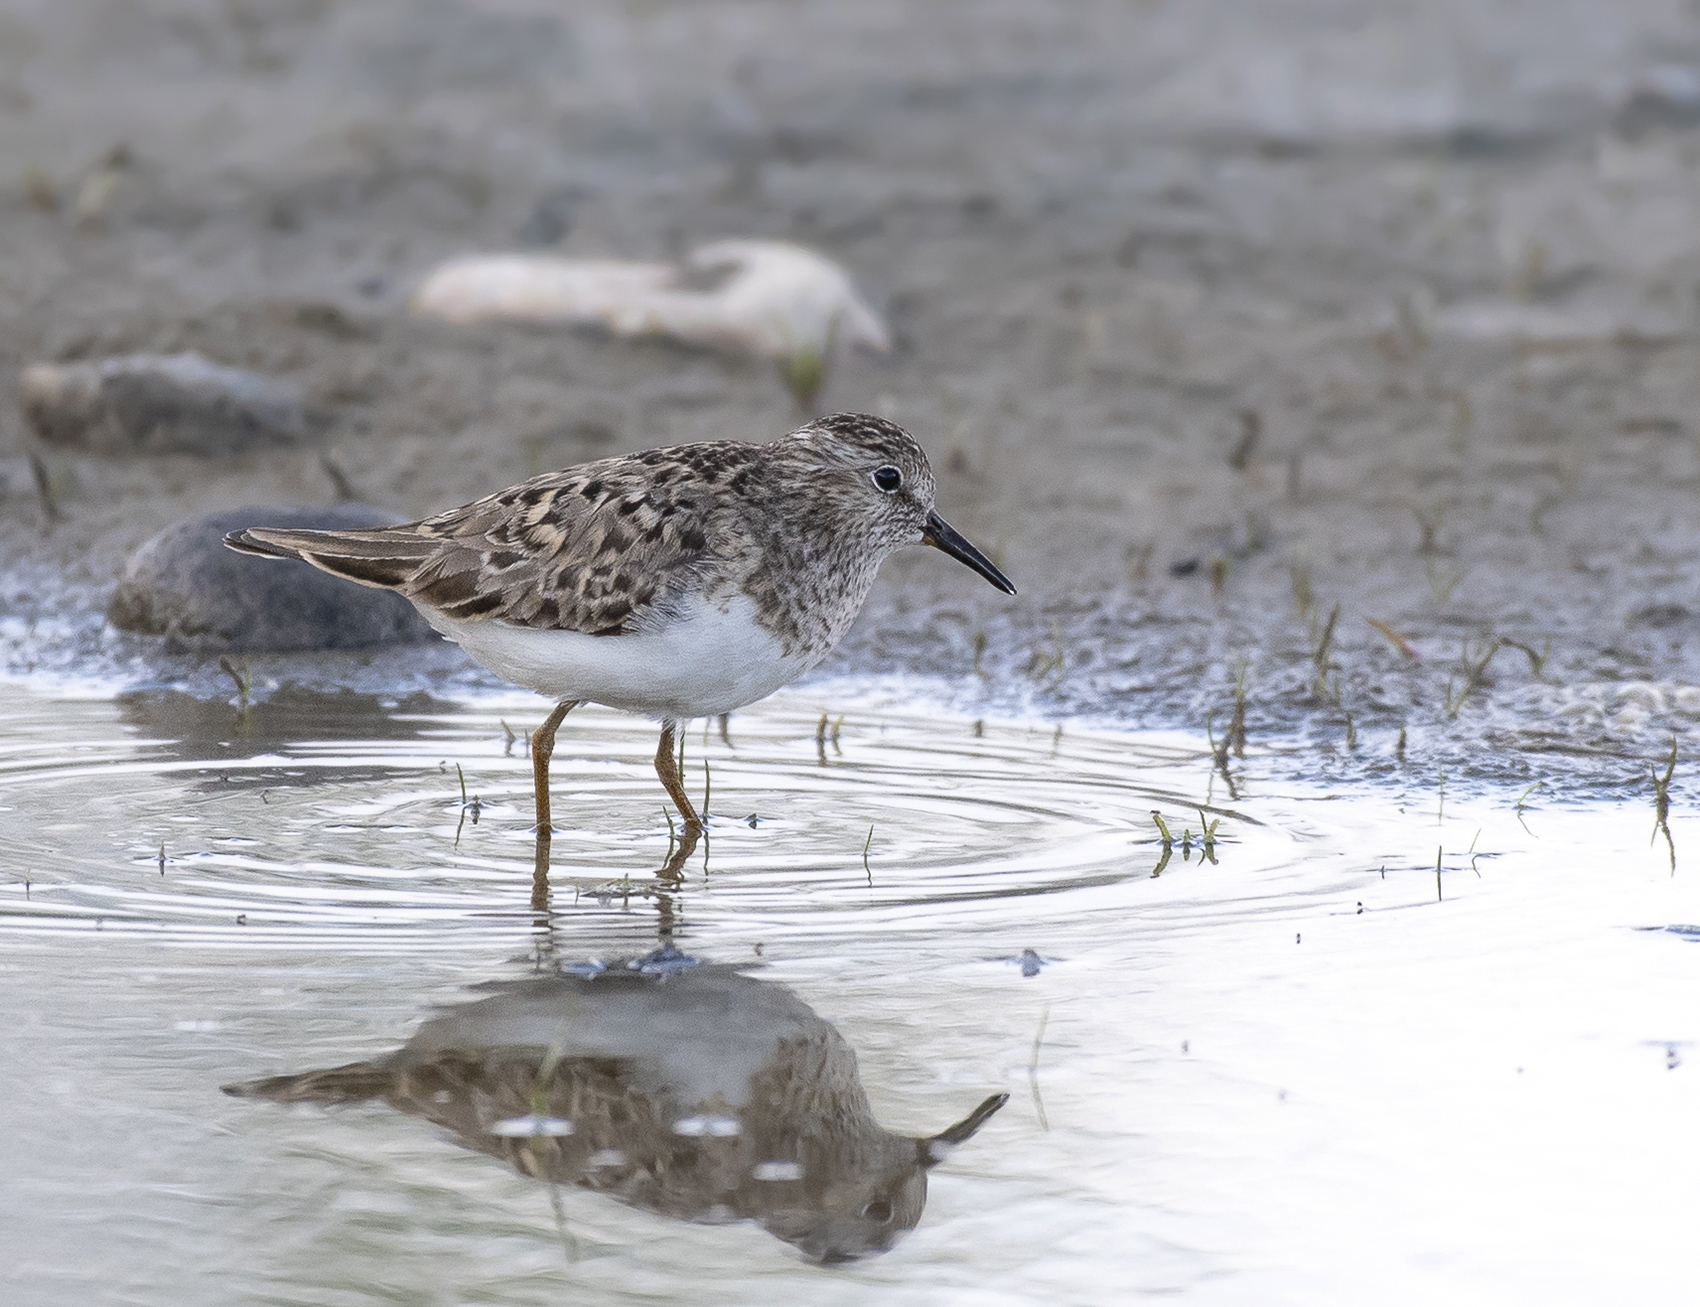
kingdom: Animalia
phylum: Chordata
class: Aves
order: Charadriiformes
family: Scolopacidae
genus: Calidris
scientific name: Calidris temminckii
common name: Temminck's stint
